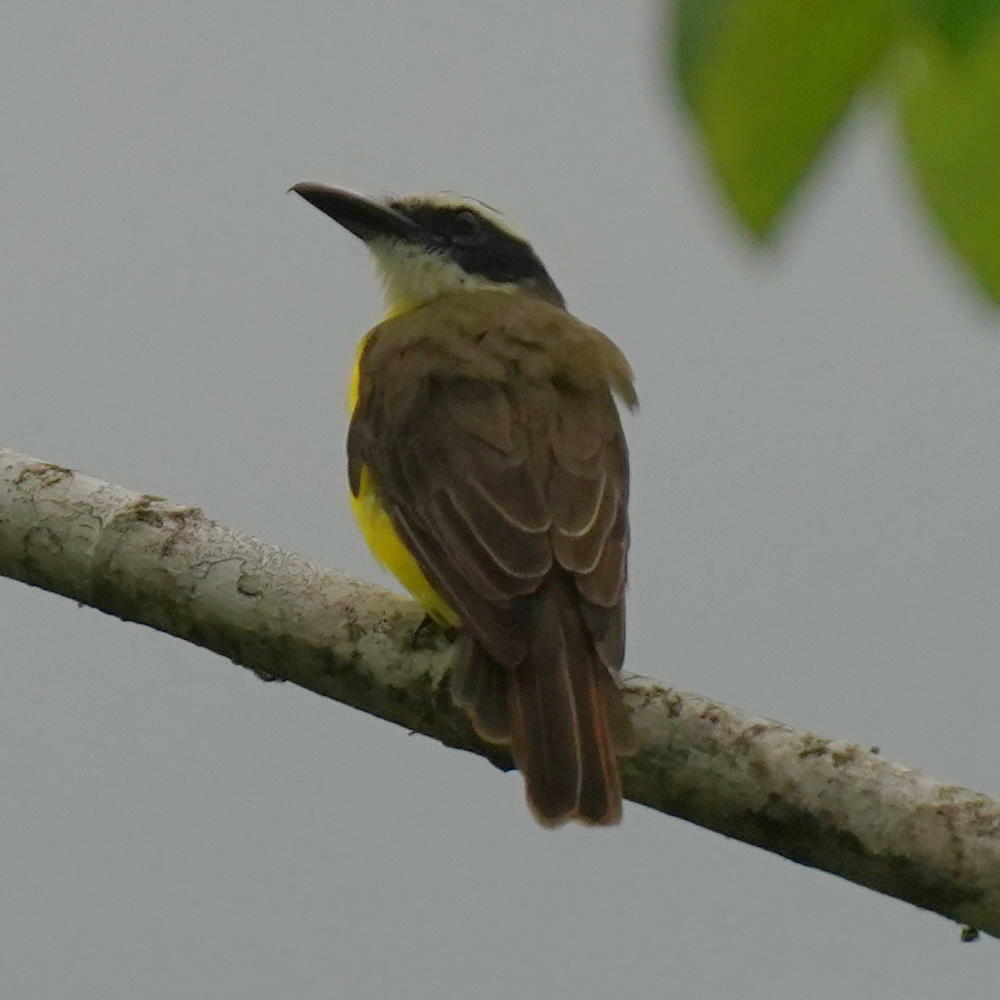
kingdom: Animalia
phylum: Chordata
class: Aves
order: Passeriformes
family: Tyrannidae
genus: Megarynchus
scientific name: Megarynchus pitangua
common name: Boat-billed flycatcher
